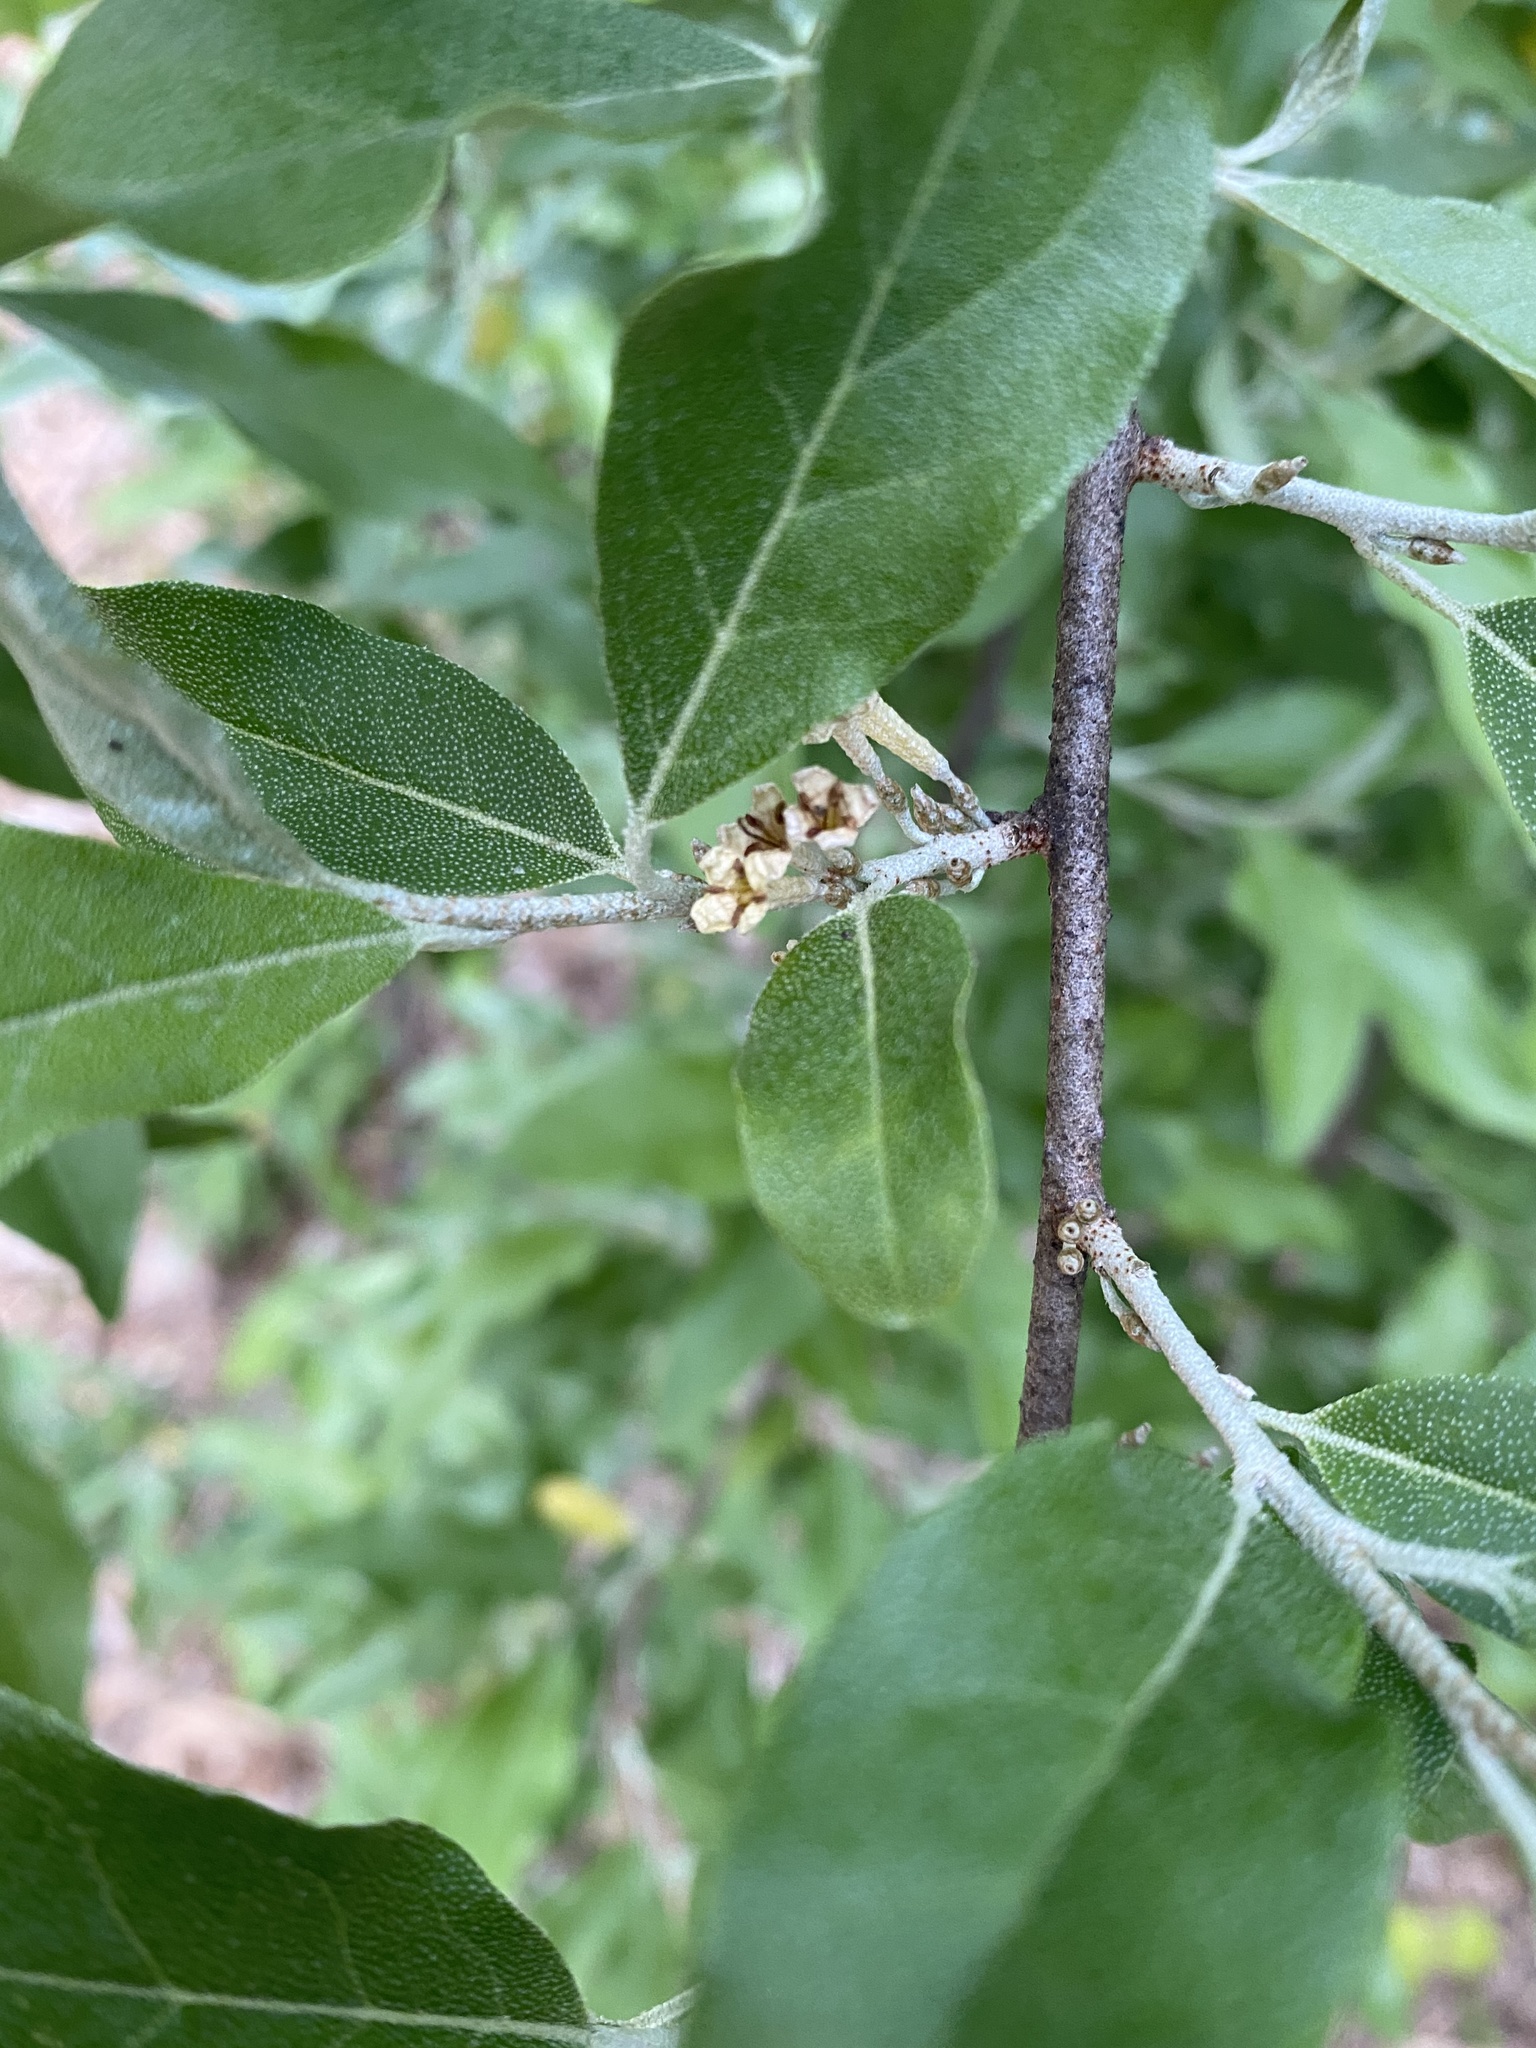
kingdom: Plantae
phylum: Tracheophyta
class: Magnoliopsida
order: Rosales
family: Elaeagnaceae
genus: Elaeagnus
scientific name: Elaeagnus umbellata
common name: Autumn olive
